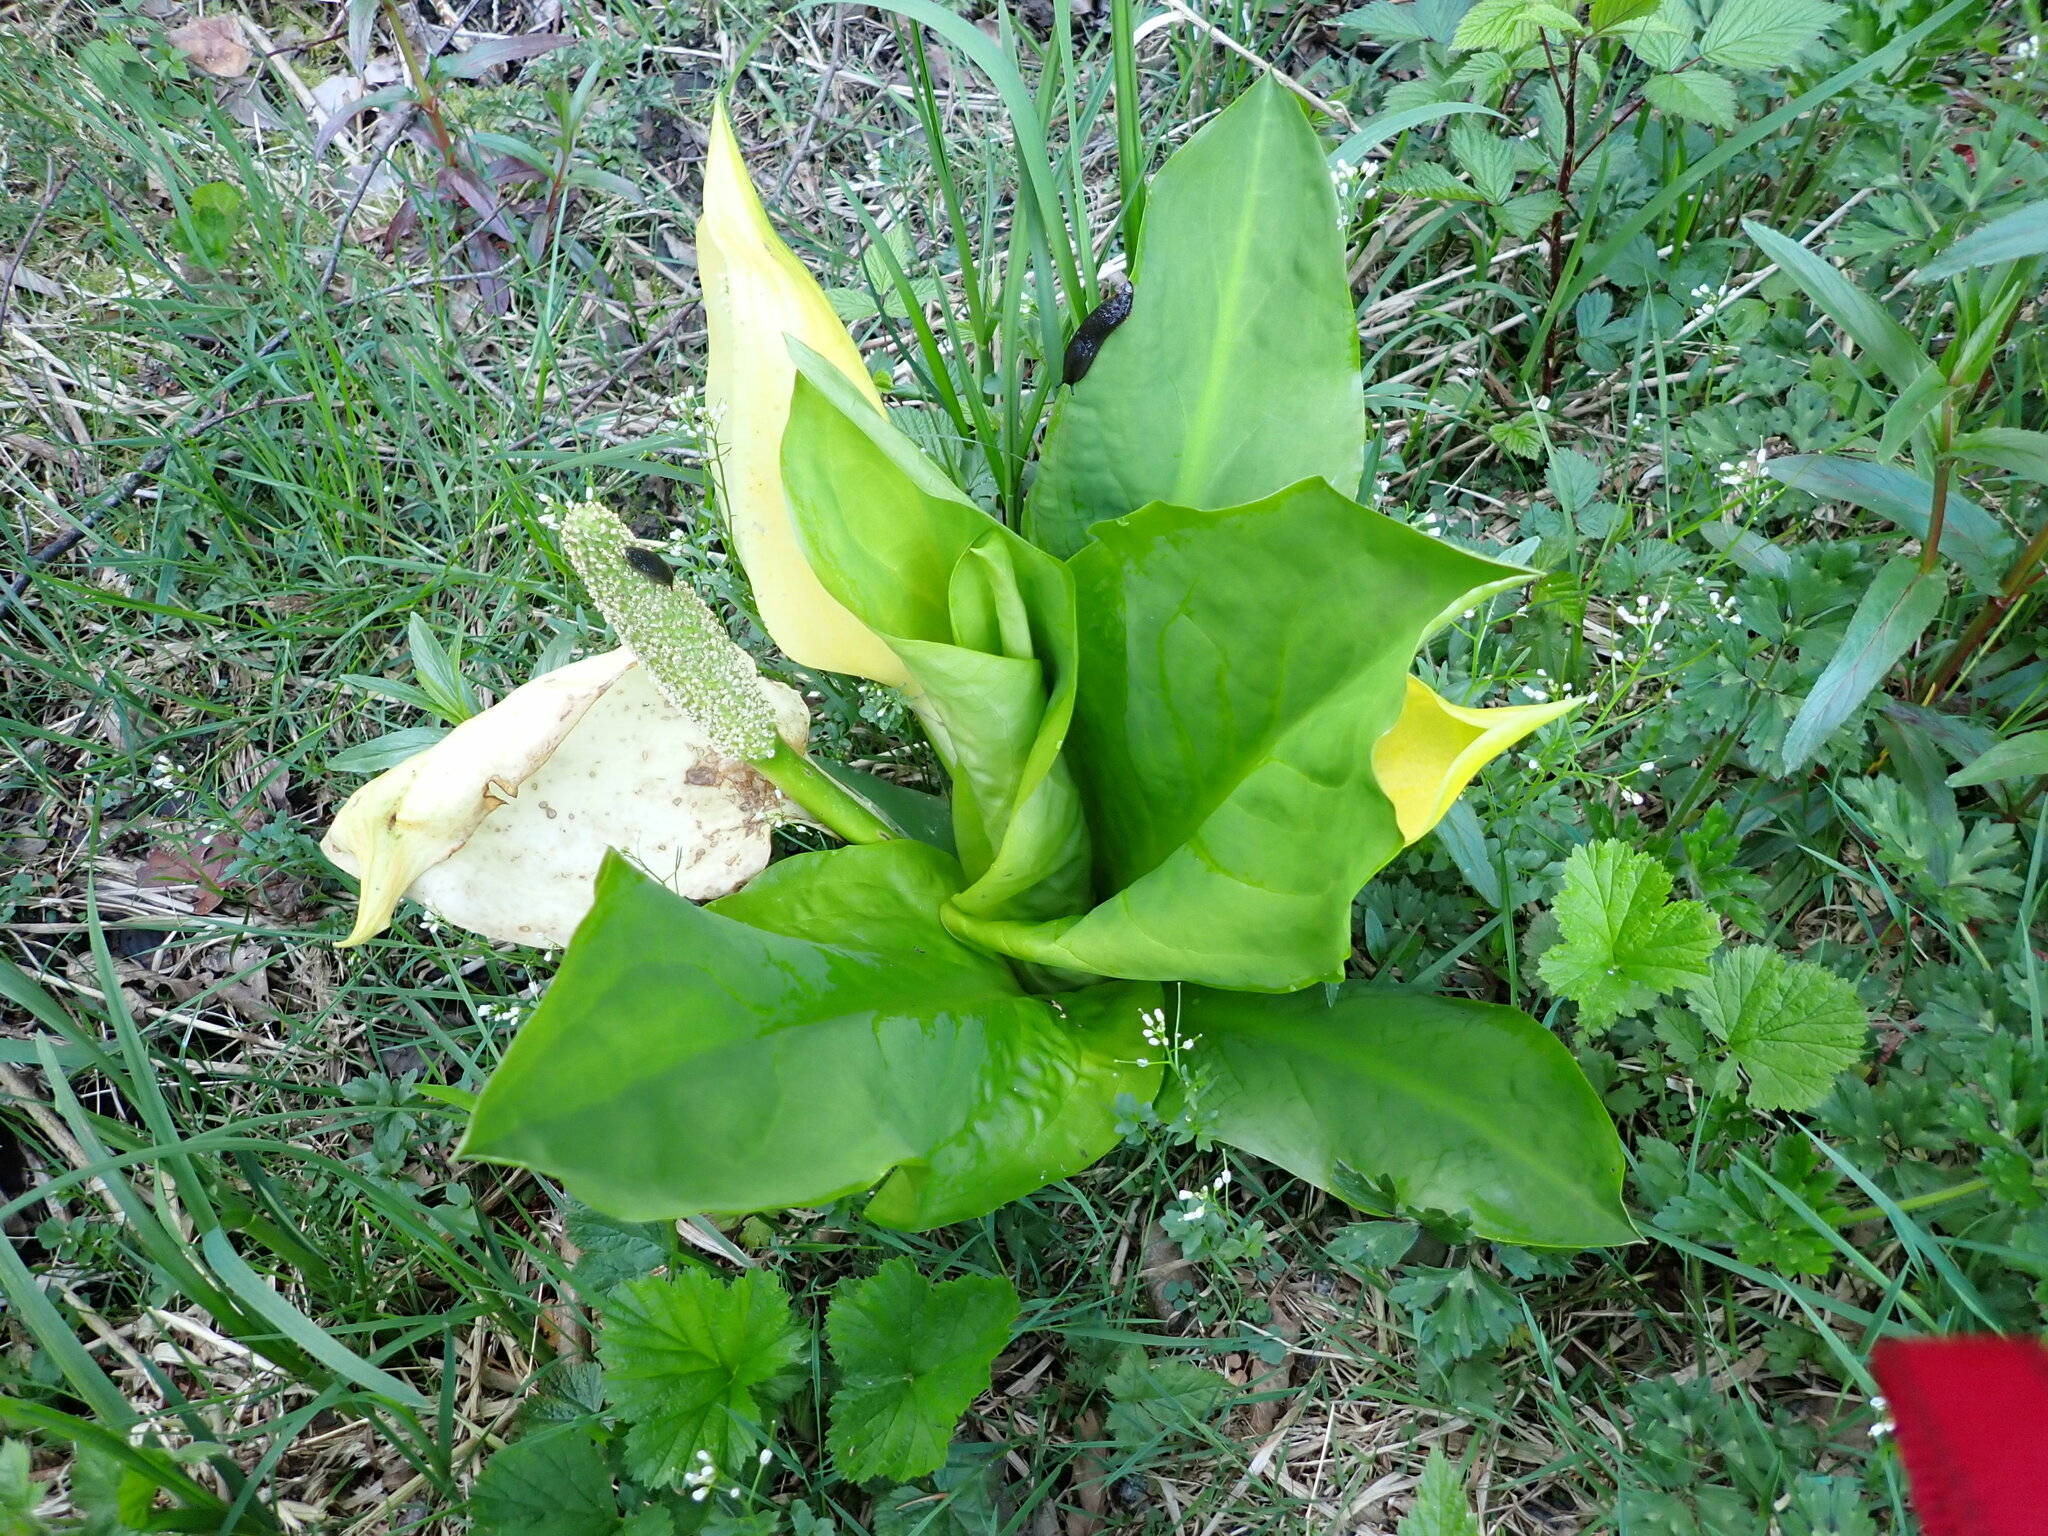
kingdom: Plantae
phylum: Tracheophyta
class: Liliopsida
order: Alismatales
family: Araceae
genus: Lysichiton
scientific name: Lysichiton americanus
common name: American skunk cabbage
